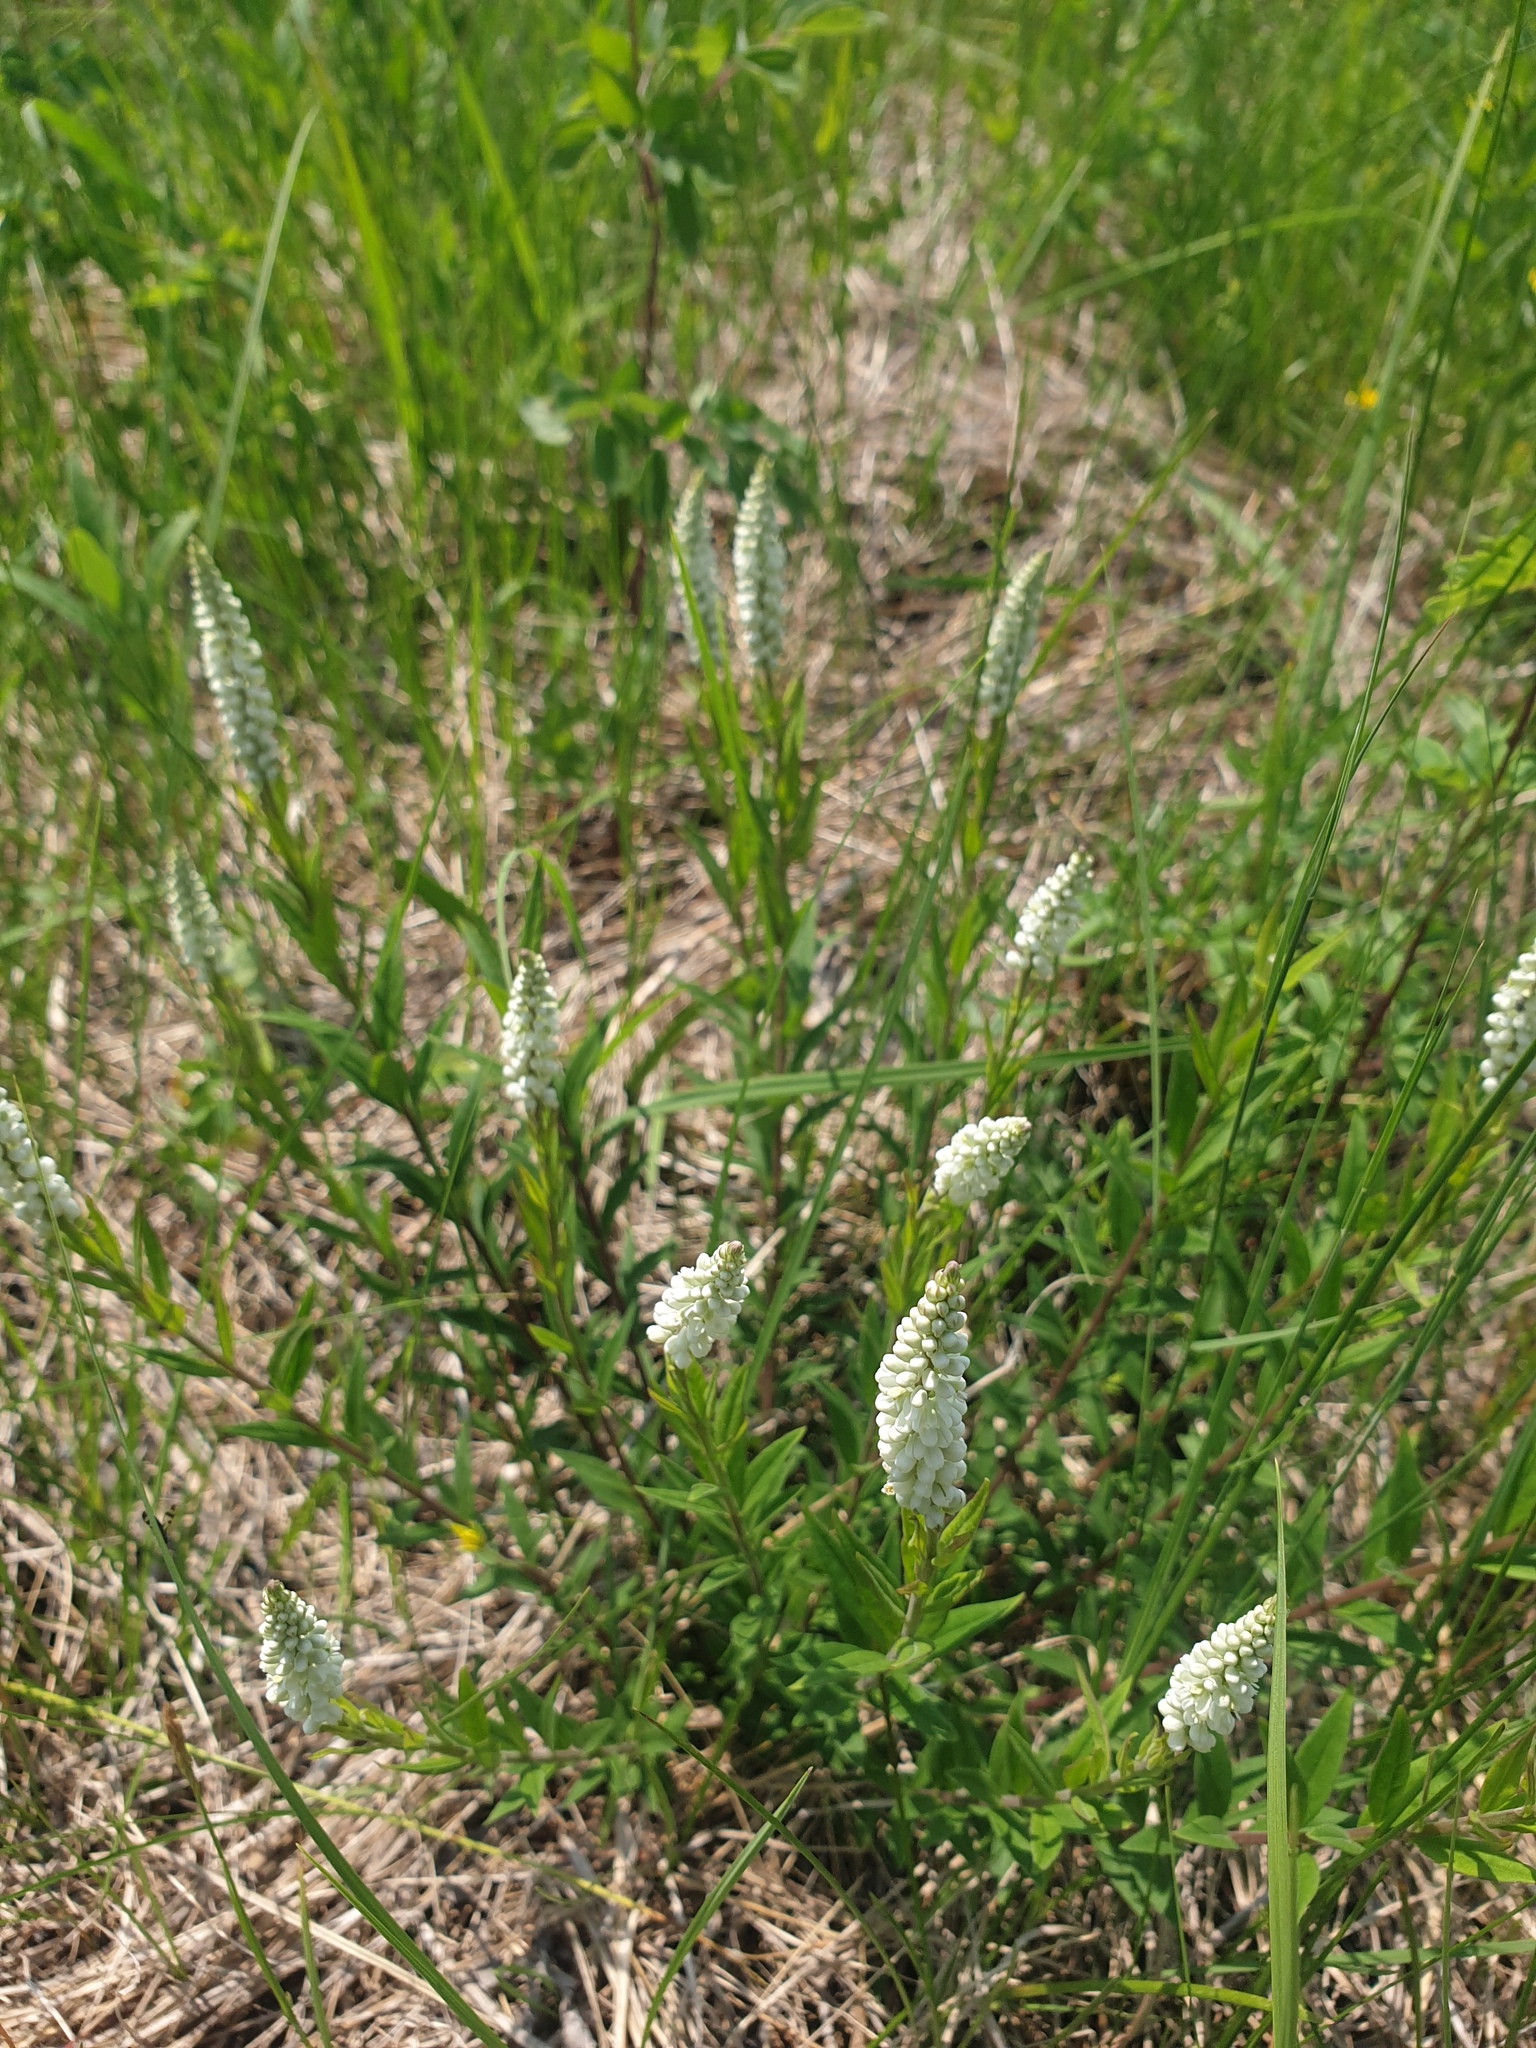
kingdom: Plantae
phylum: Tracheophyta
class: Magnoliopsida
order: Fabales
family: Polygalaceae
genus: Polygala
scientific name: Polygala senega
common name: Seneca snakeroot
